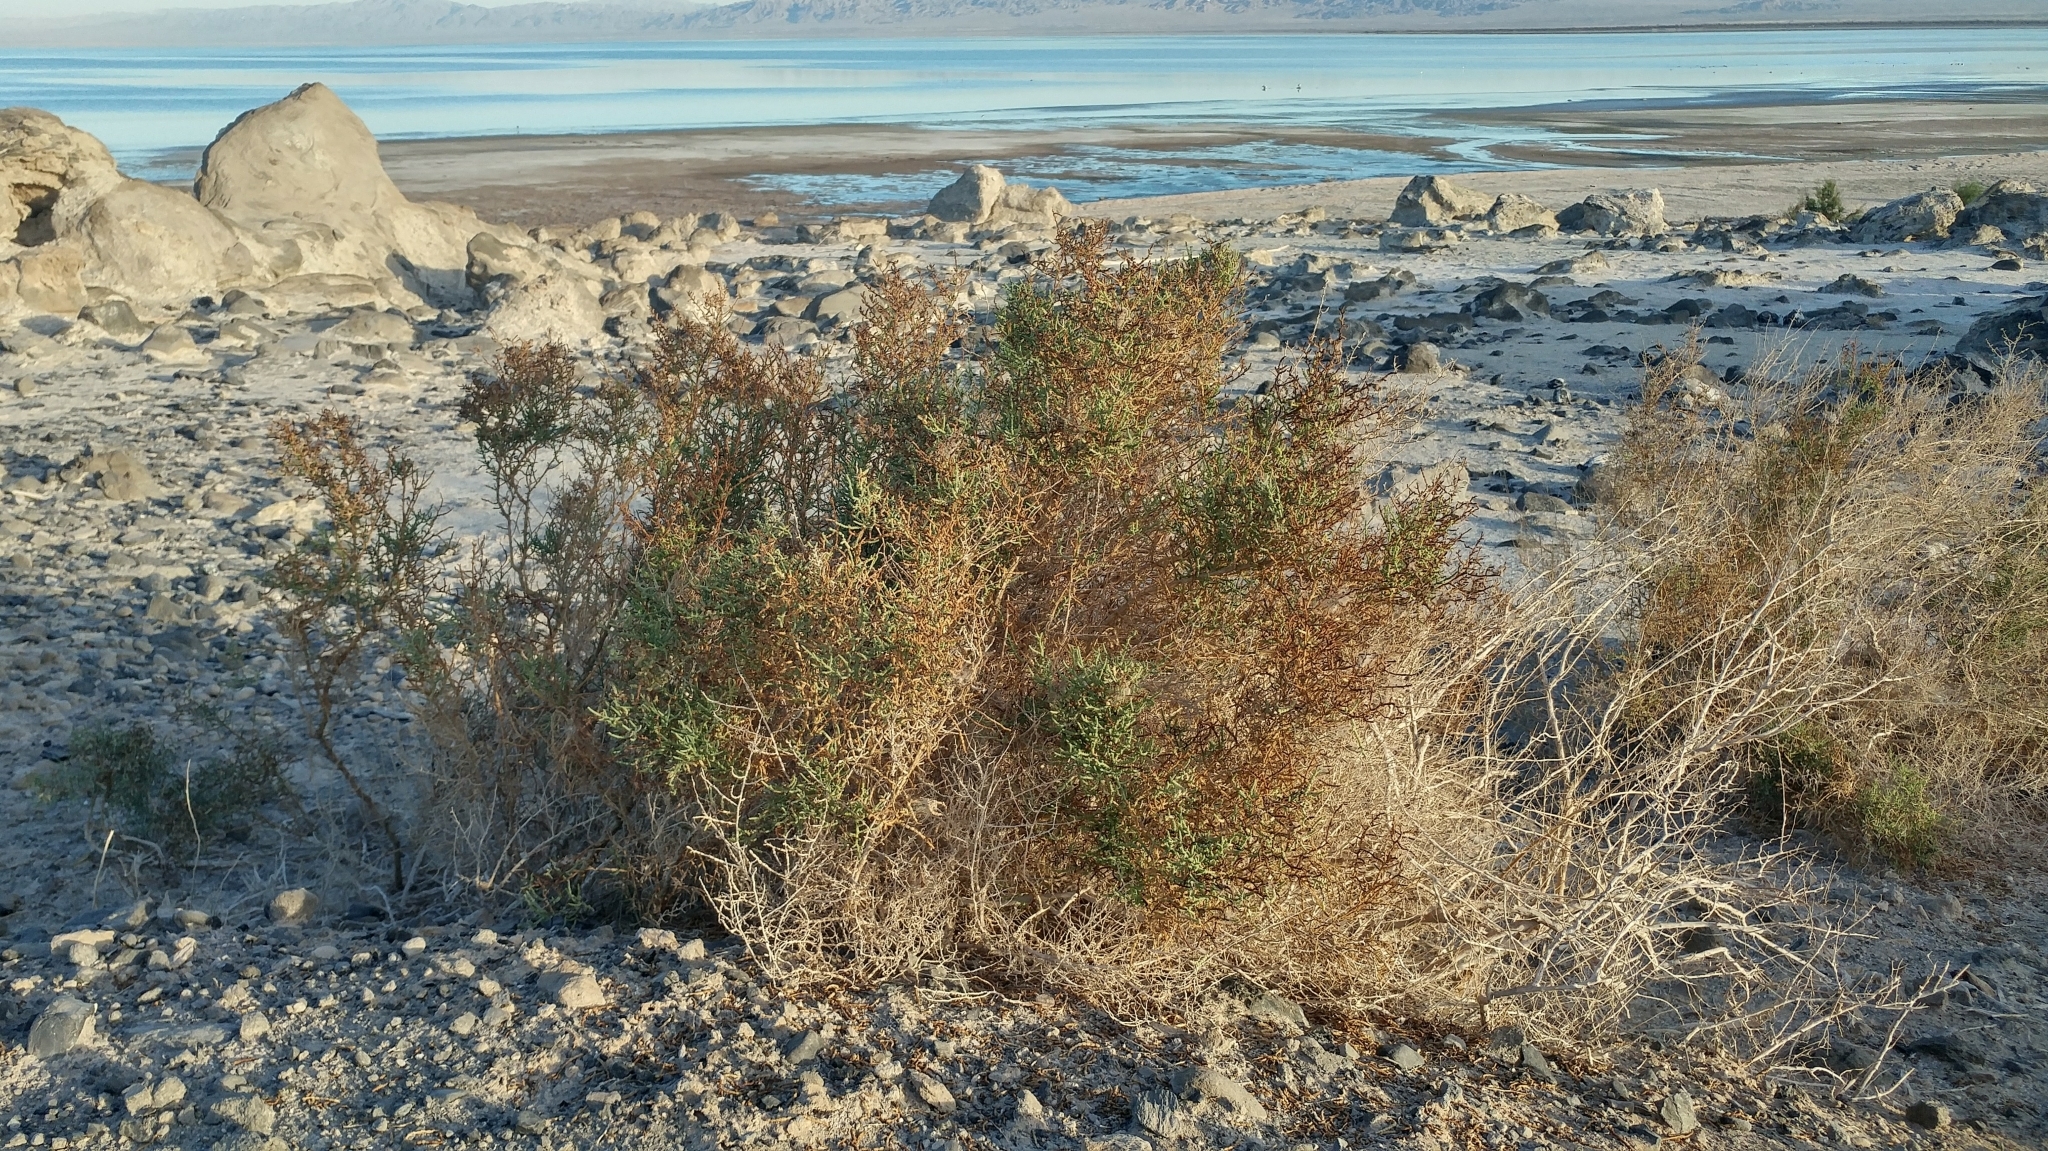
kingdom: Plantae
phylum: Tracheophyta
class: Magnoliopsida
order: Caryophyllales
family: Amaranthaceae
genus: Allenrolfea
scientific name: Allenrolfea occidentalis
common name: Iodine-bush
